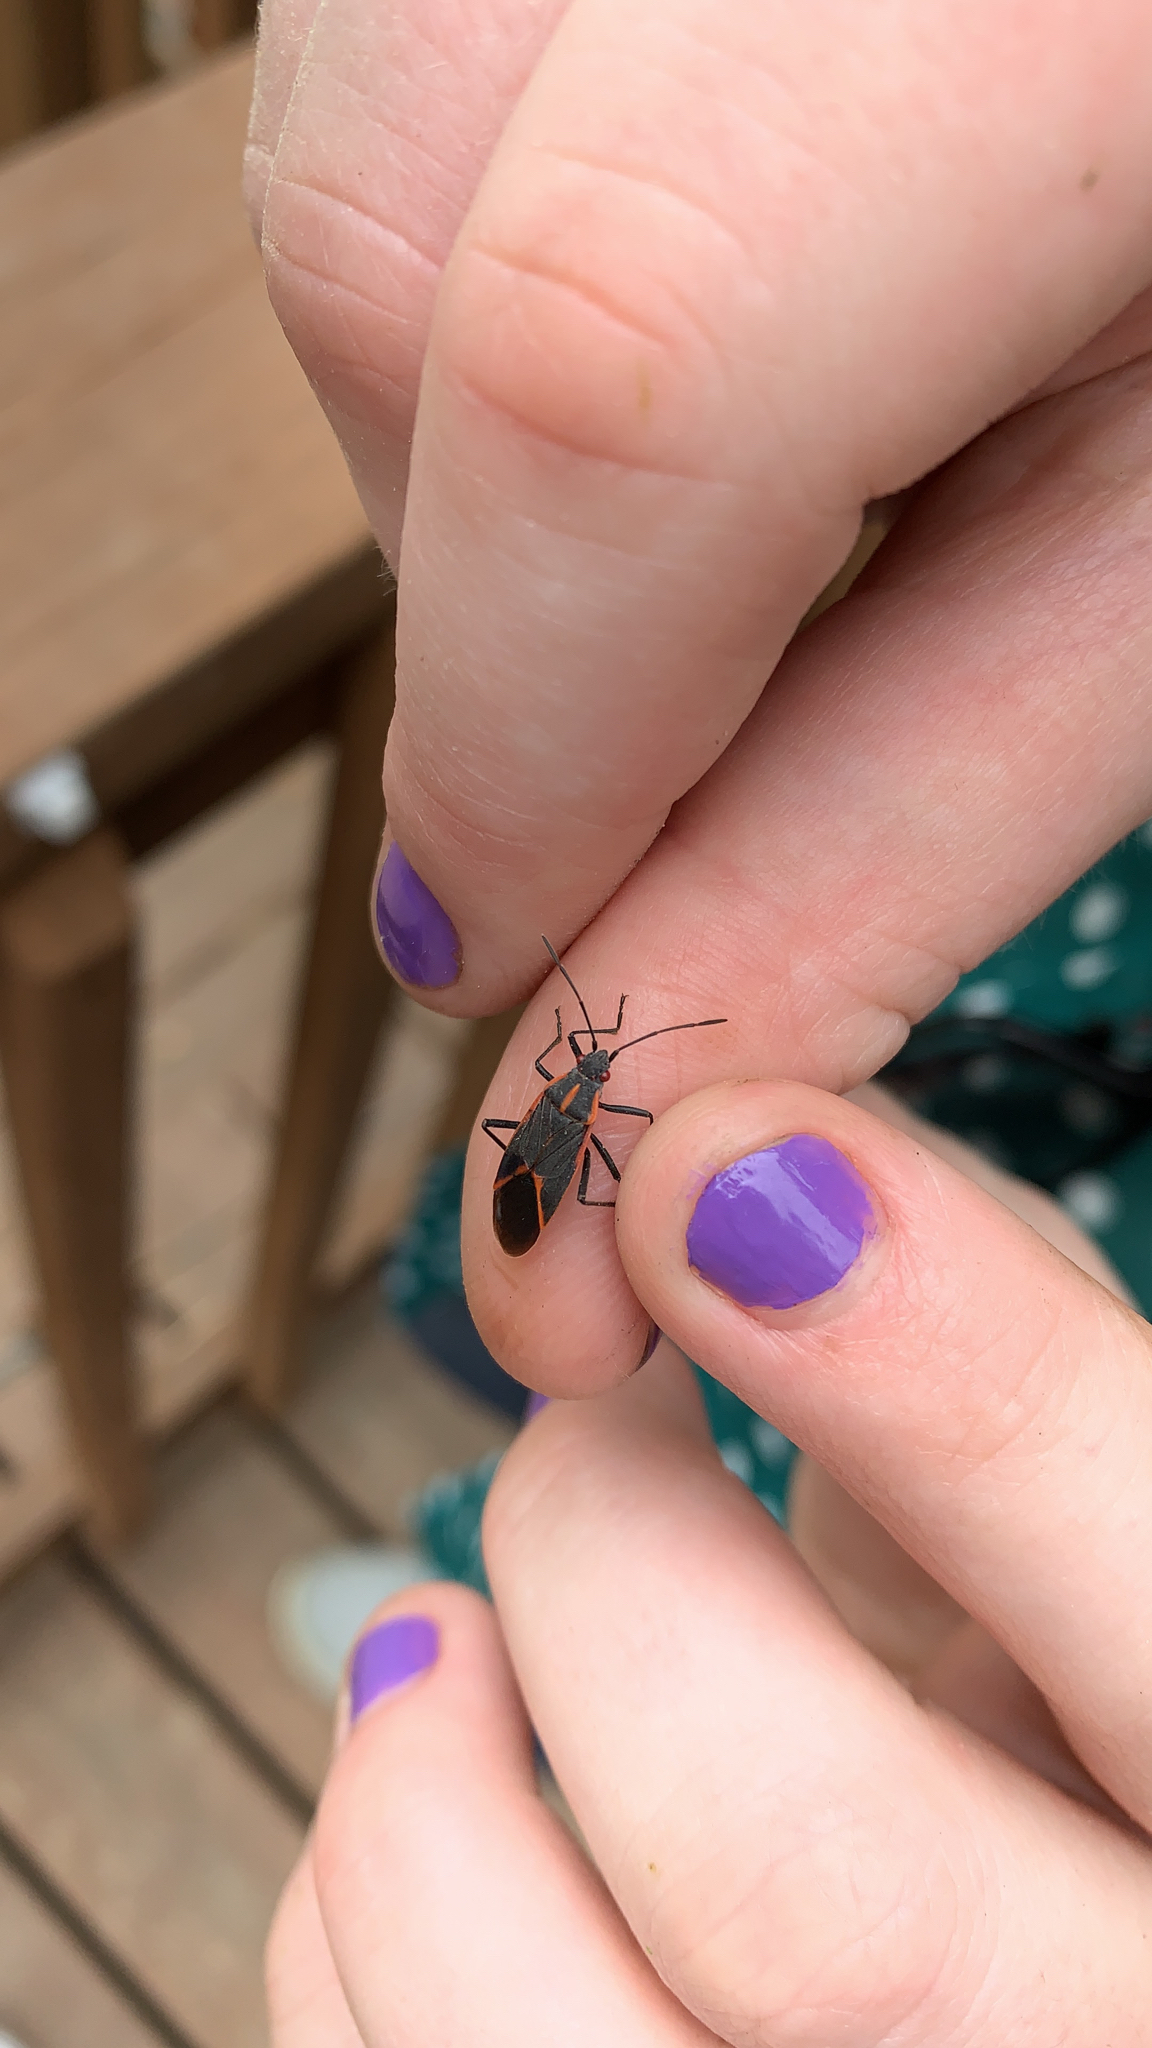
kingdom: Animalia
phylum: Arthropoda
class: Insecta
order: Hemiptera
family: Rhopalidae
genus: Boisea
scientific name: Boisea trivittata
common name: Boxelder bug
